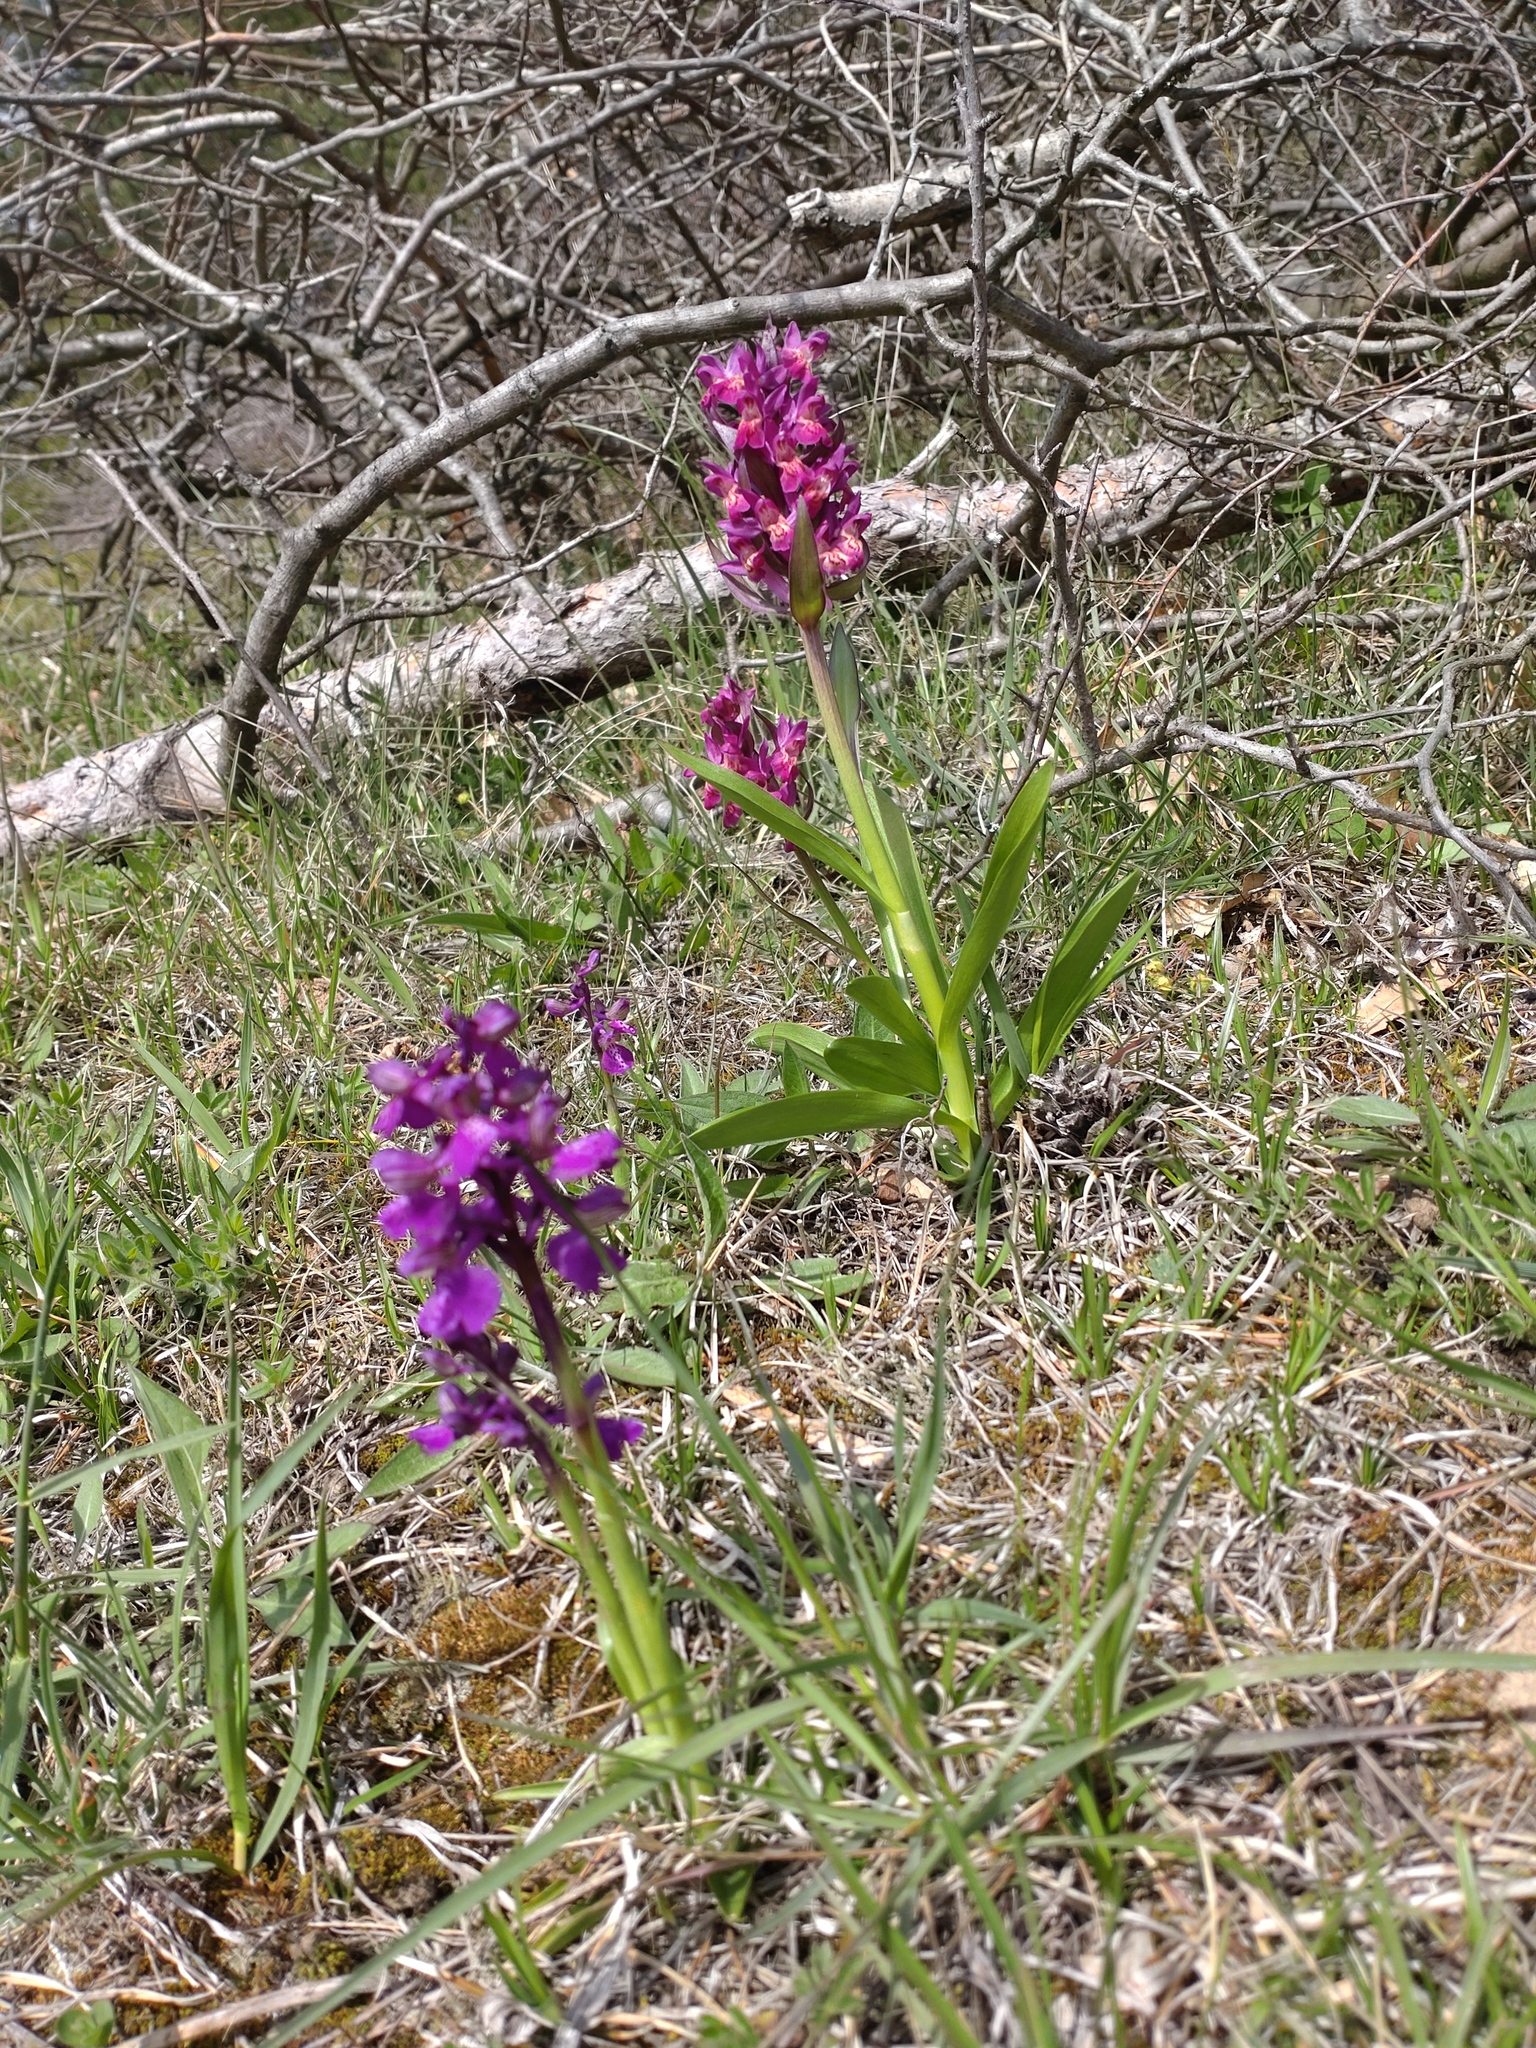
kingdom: Plantae
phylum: Tracheophyta
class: Liliopsida
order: Asparagales
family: Orchidaceae
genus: Dactylorhiza
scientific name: Dactylorhiza sambucina
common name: Elder-flowered orchid
